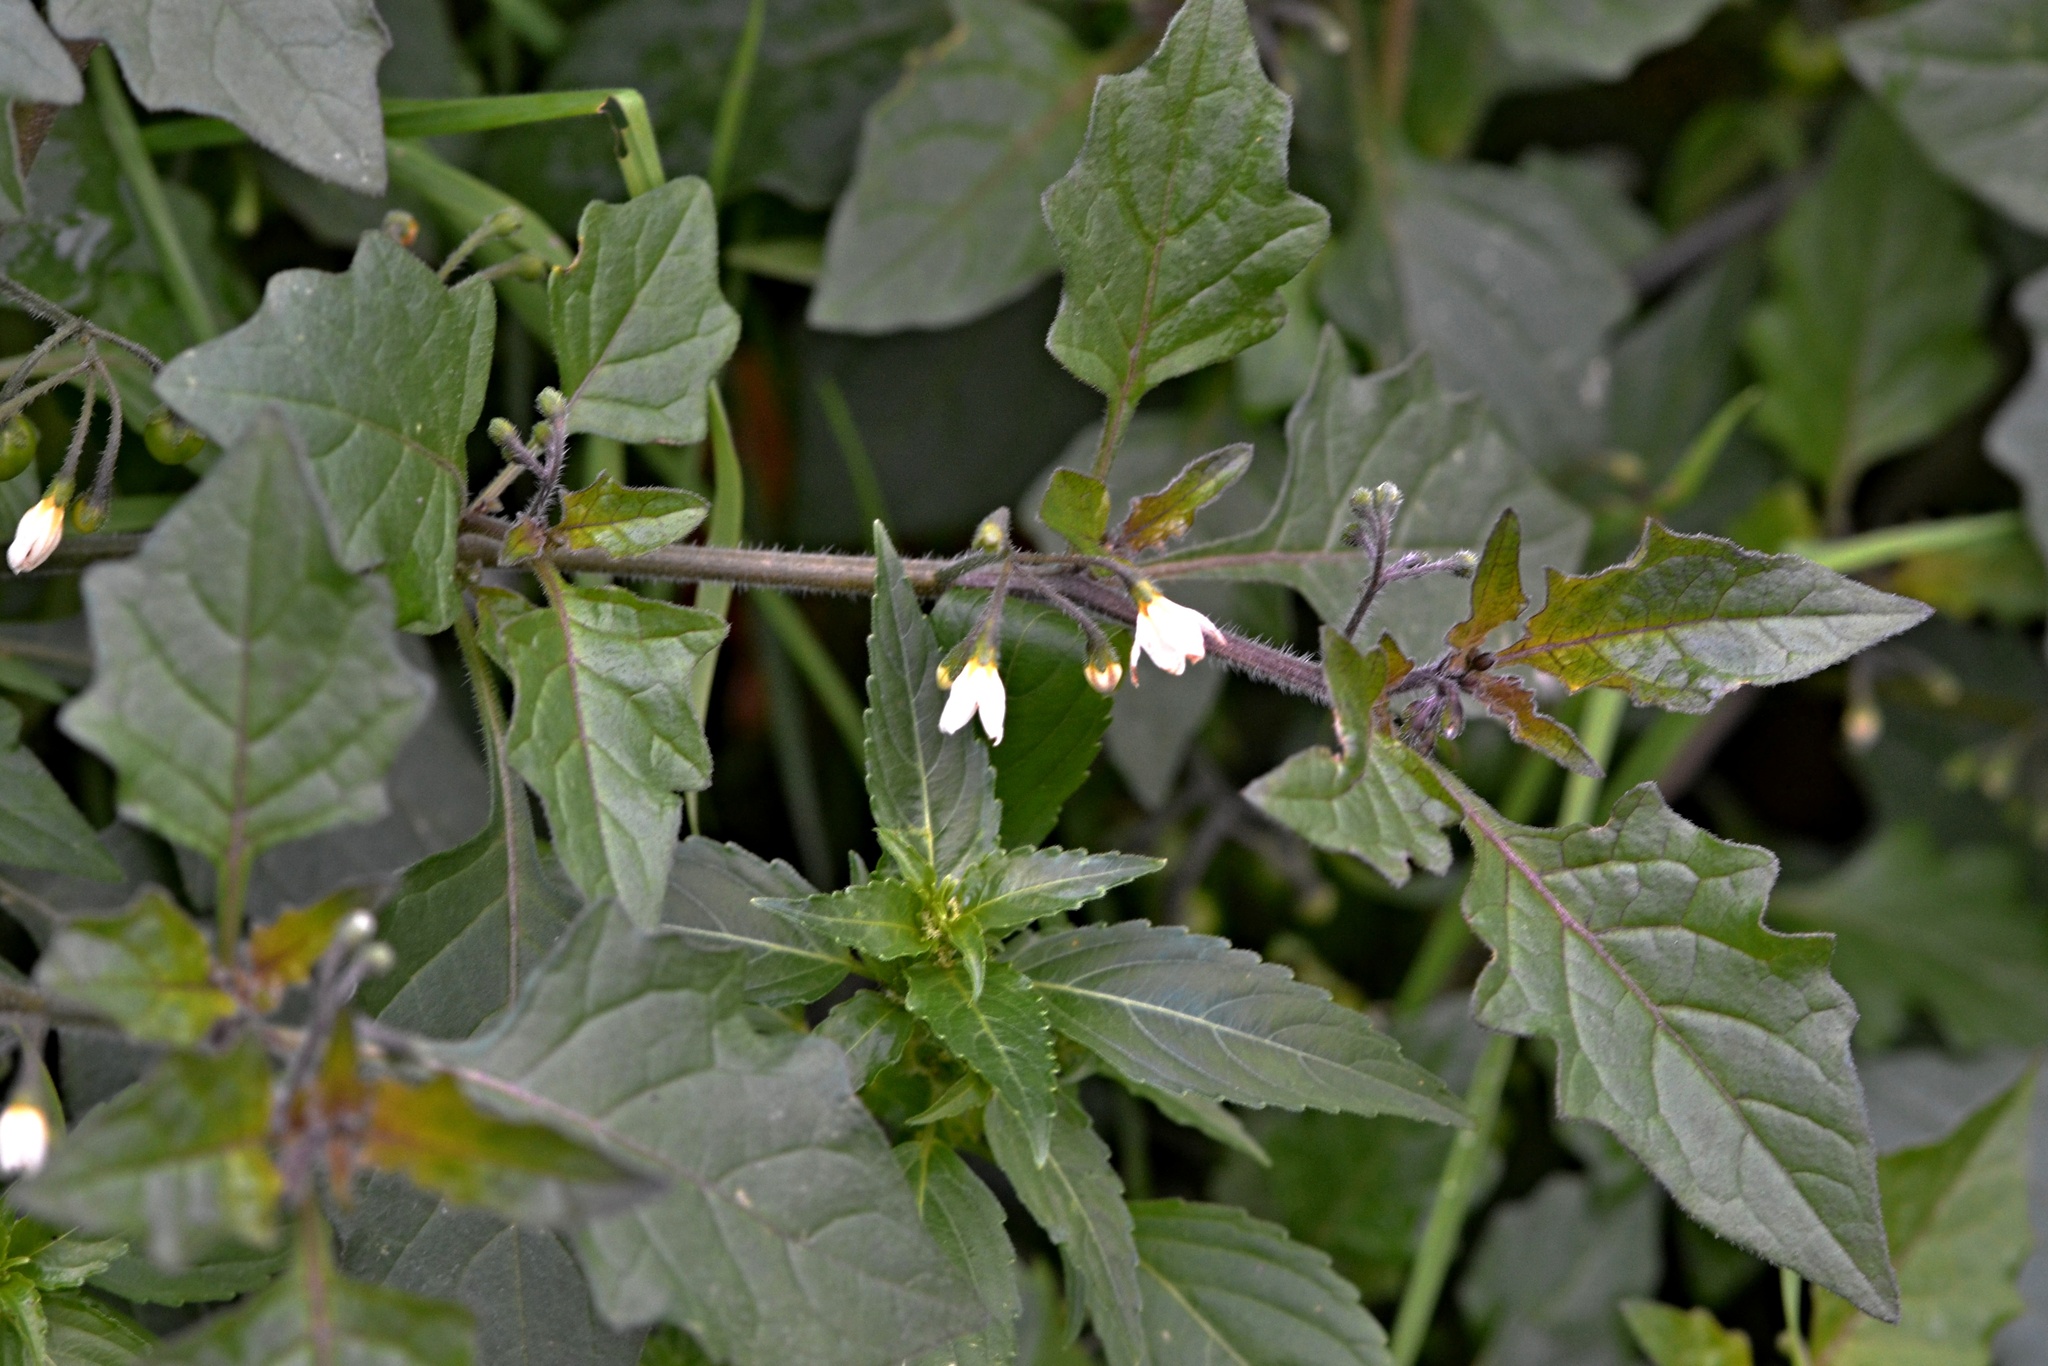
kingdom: Plantae
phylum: Tracheophyta
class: Magnoliopsida
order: Solanales
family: Solanaceae
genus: Solanum
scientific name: Solanum nigrum
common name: Black nightshade
